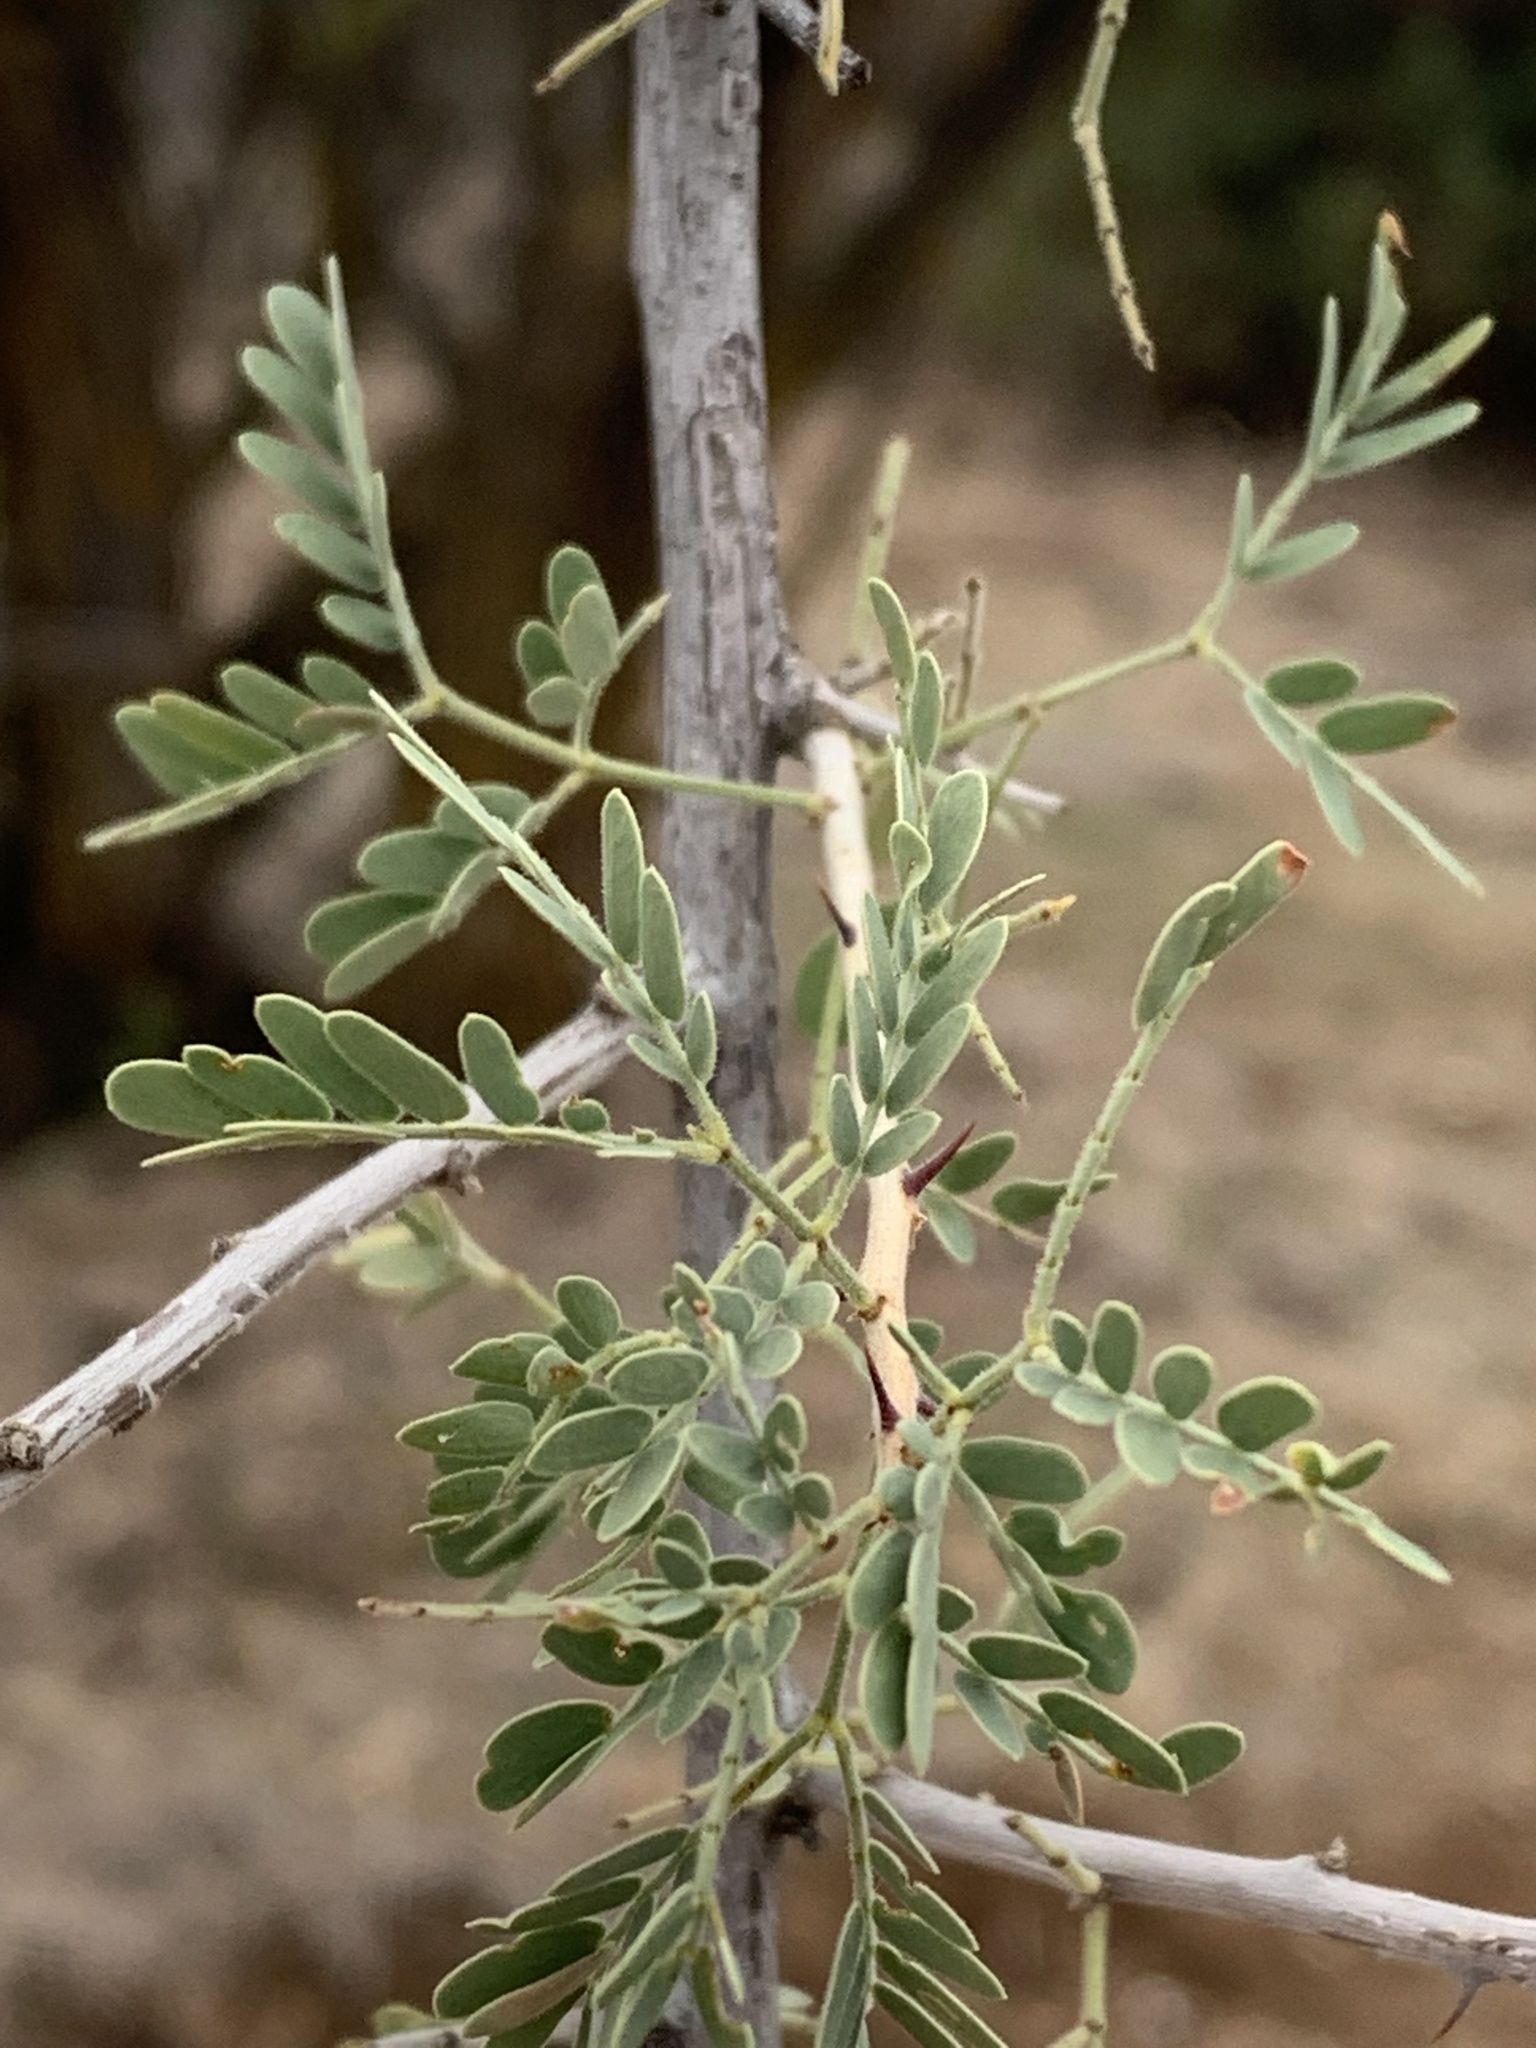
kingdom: Plantae
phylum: Tracheophyta
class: Magnoliopsida
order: Fabales
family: Fabaceae
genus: Senegalia
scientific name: Senegalia greggii
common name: Texas-mimosa
